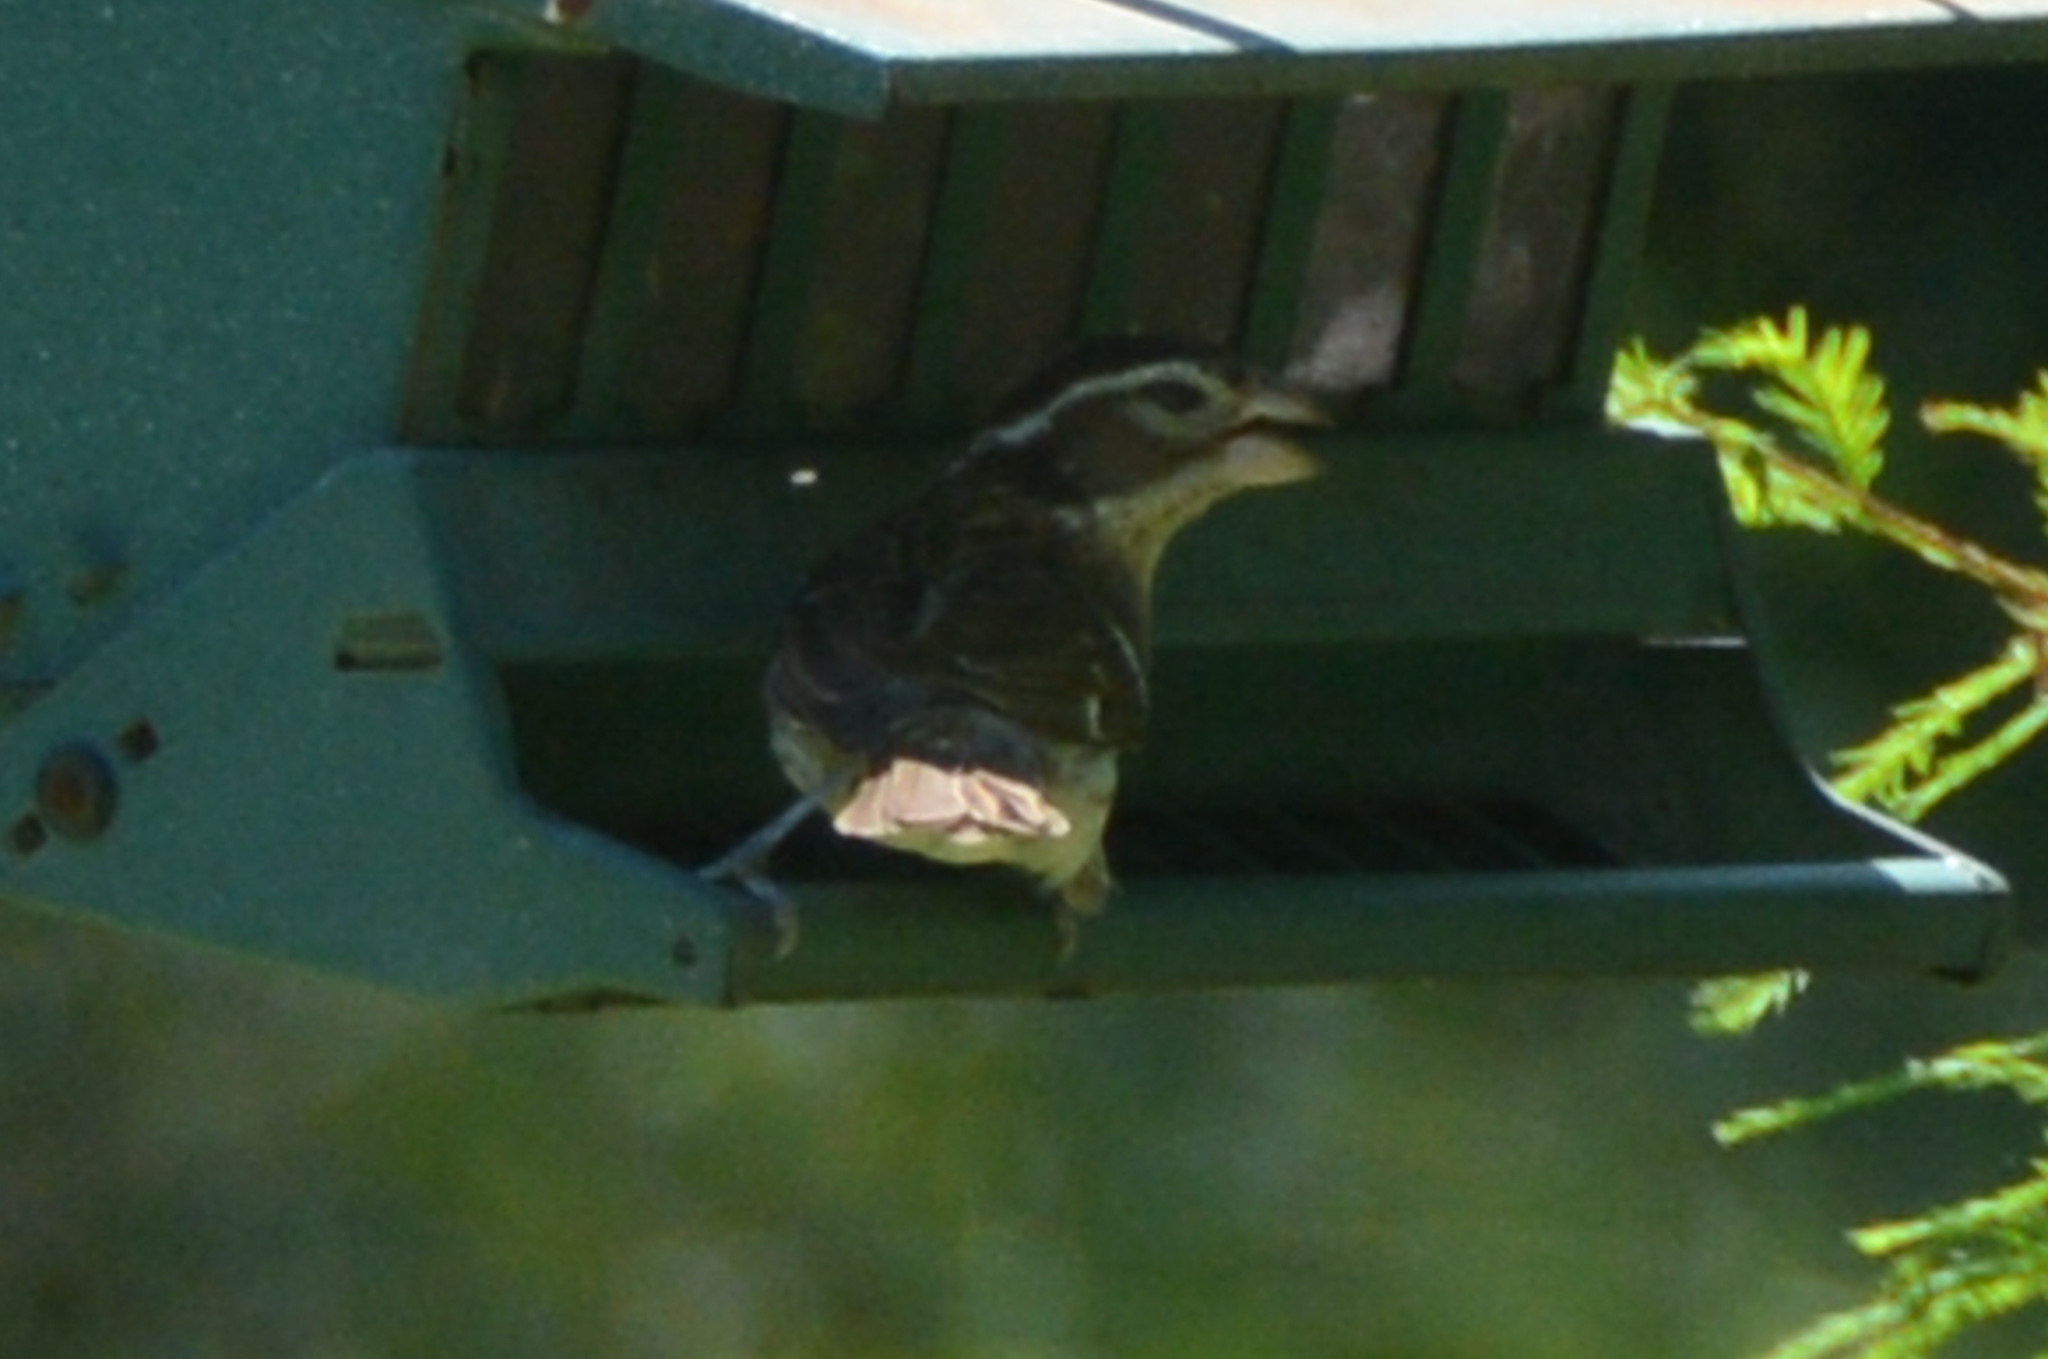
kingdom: Animalia
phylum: Chordata
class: Aves
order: Passeriformes
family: Cardinalidae
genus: Pheucticus
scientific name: Pheucticus ludovicianus
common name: Rose-breasted grosbeak
